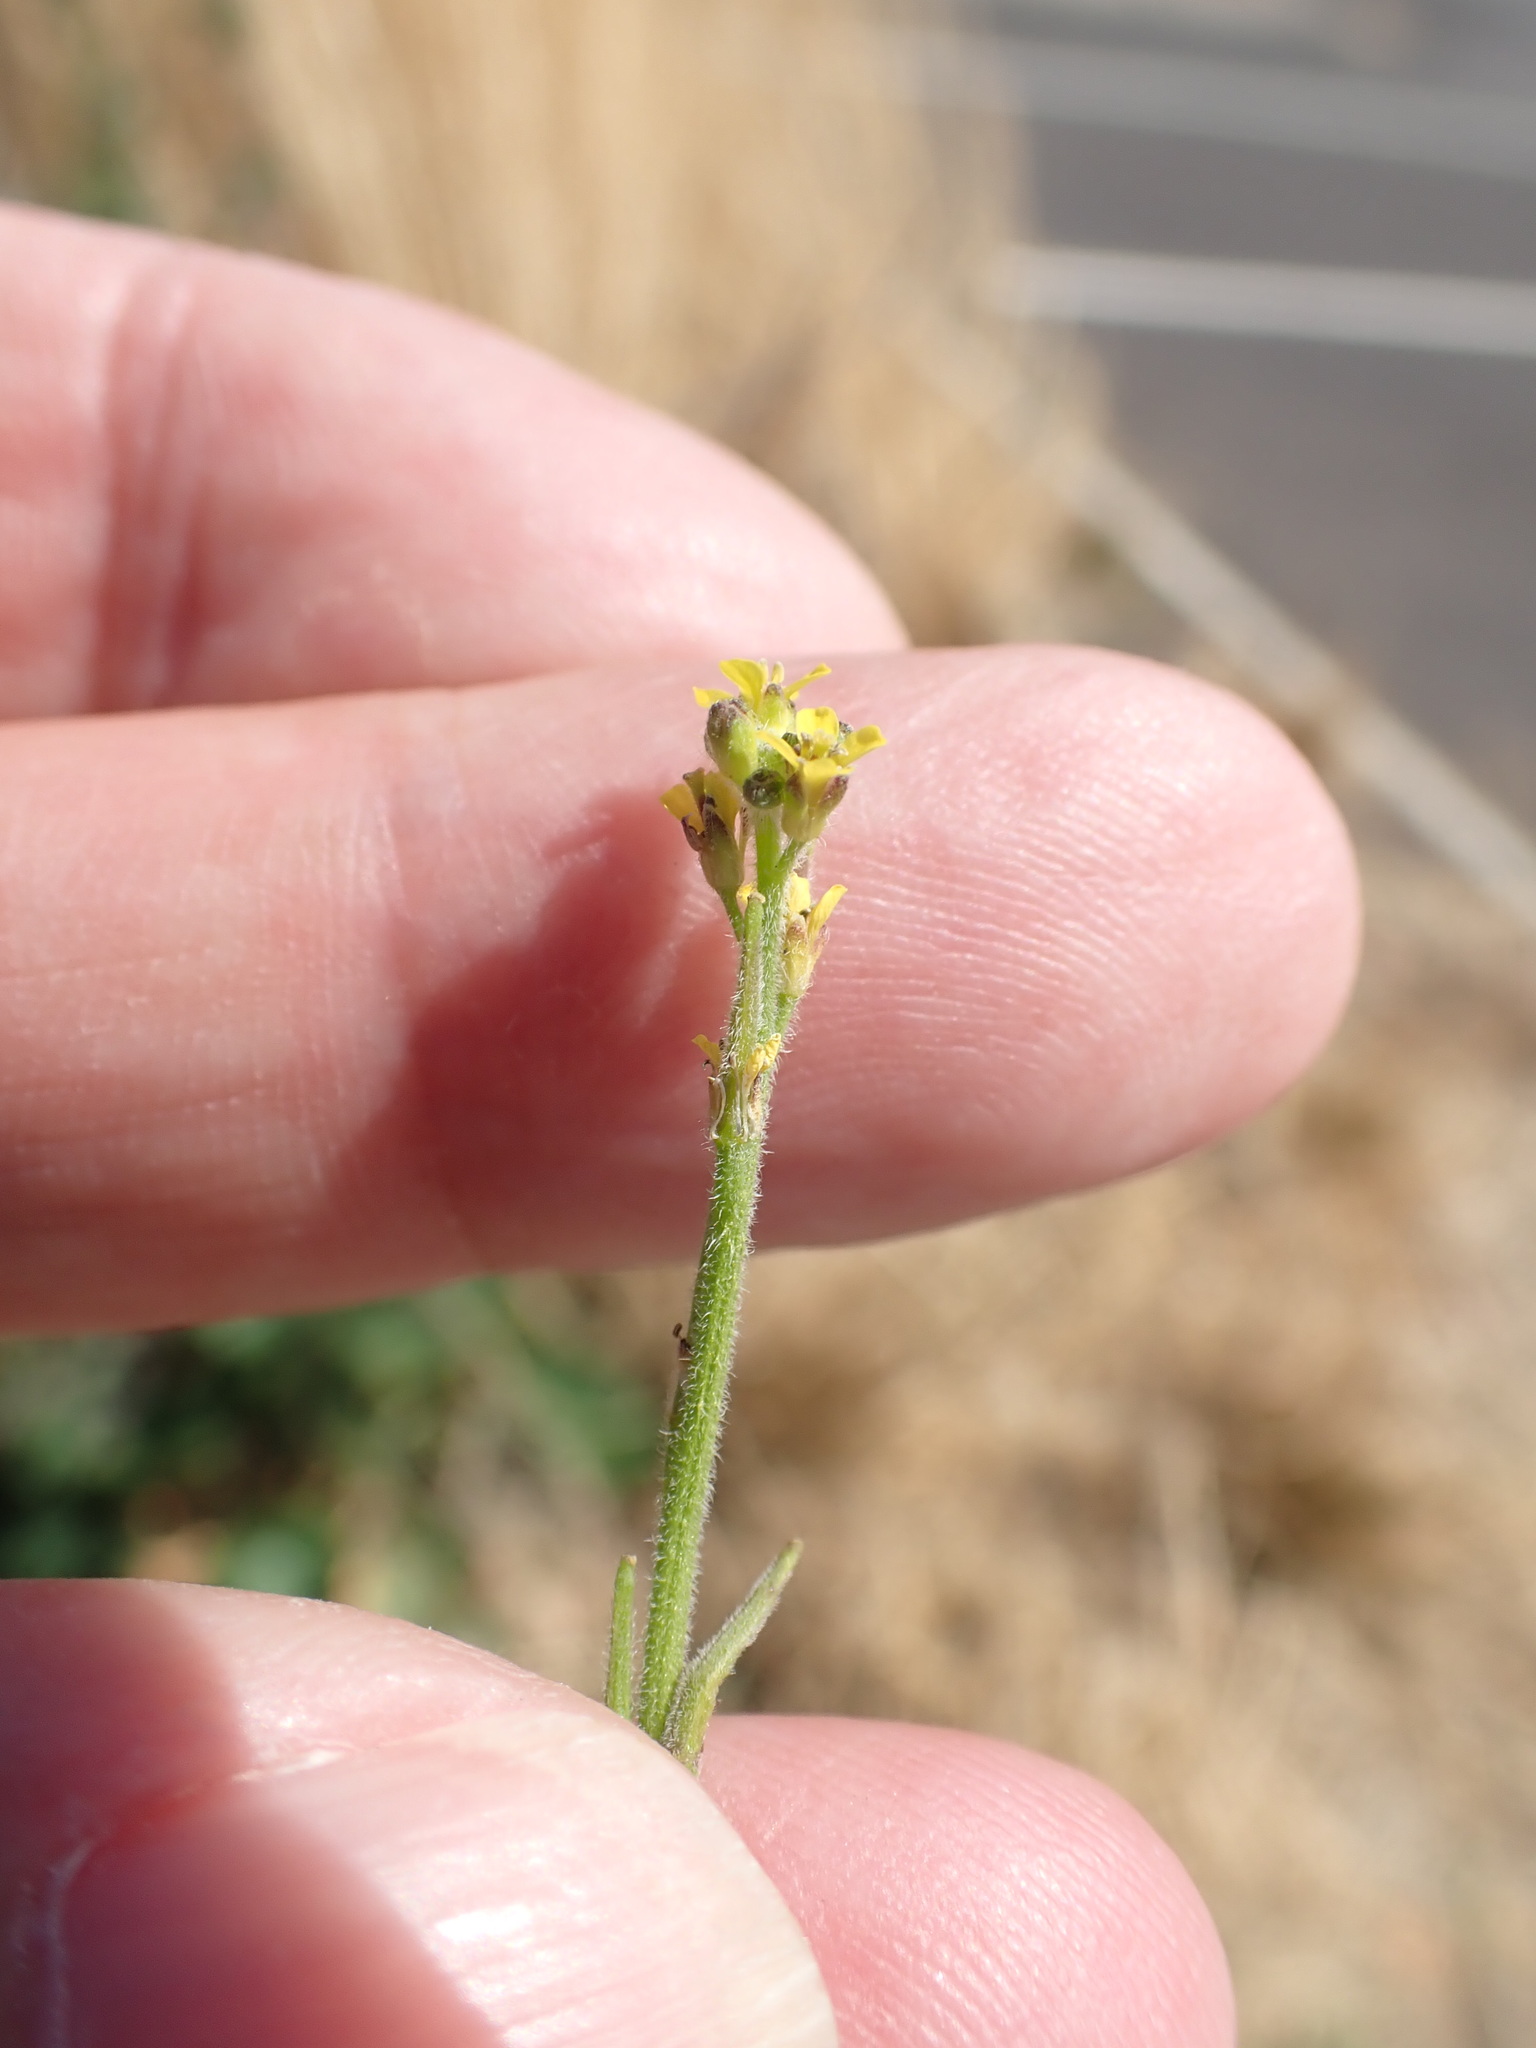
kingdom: Plantae
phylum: Tracheophyta
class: Magnoliopsida
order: Brassicales
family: Brassicaceae
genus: Sisymbrium
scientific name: Sisymbrium officinale
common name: Hedge mustard
